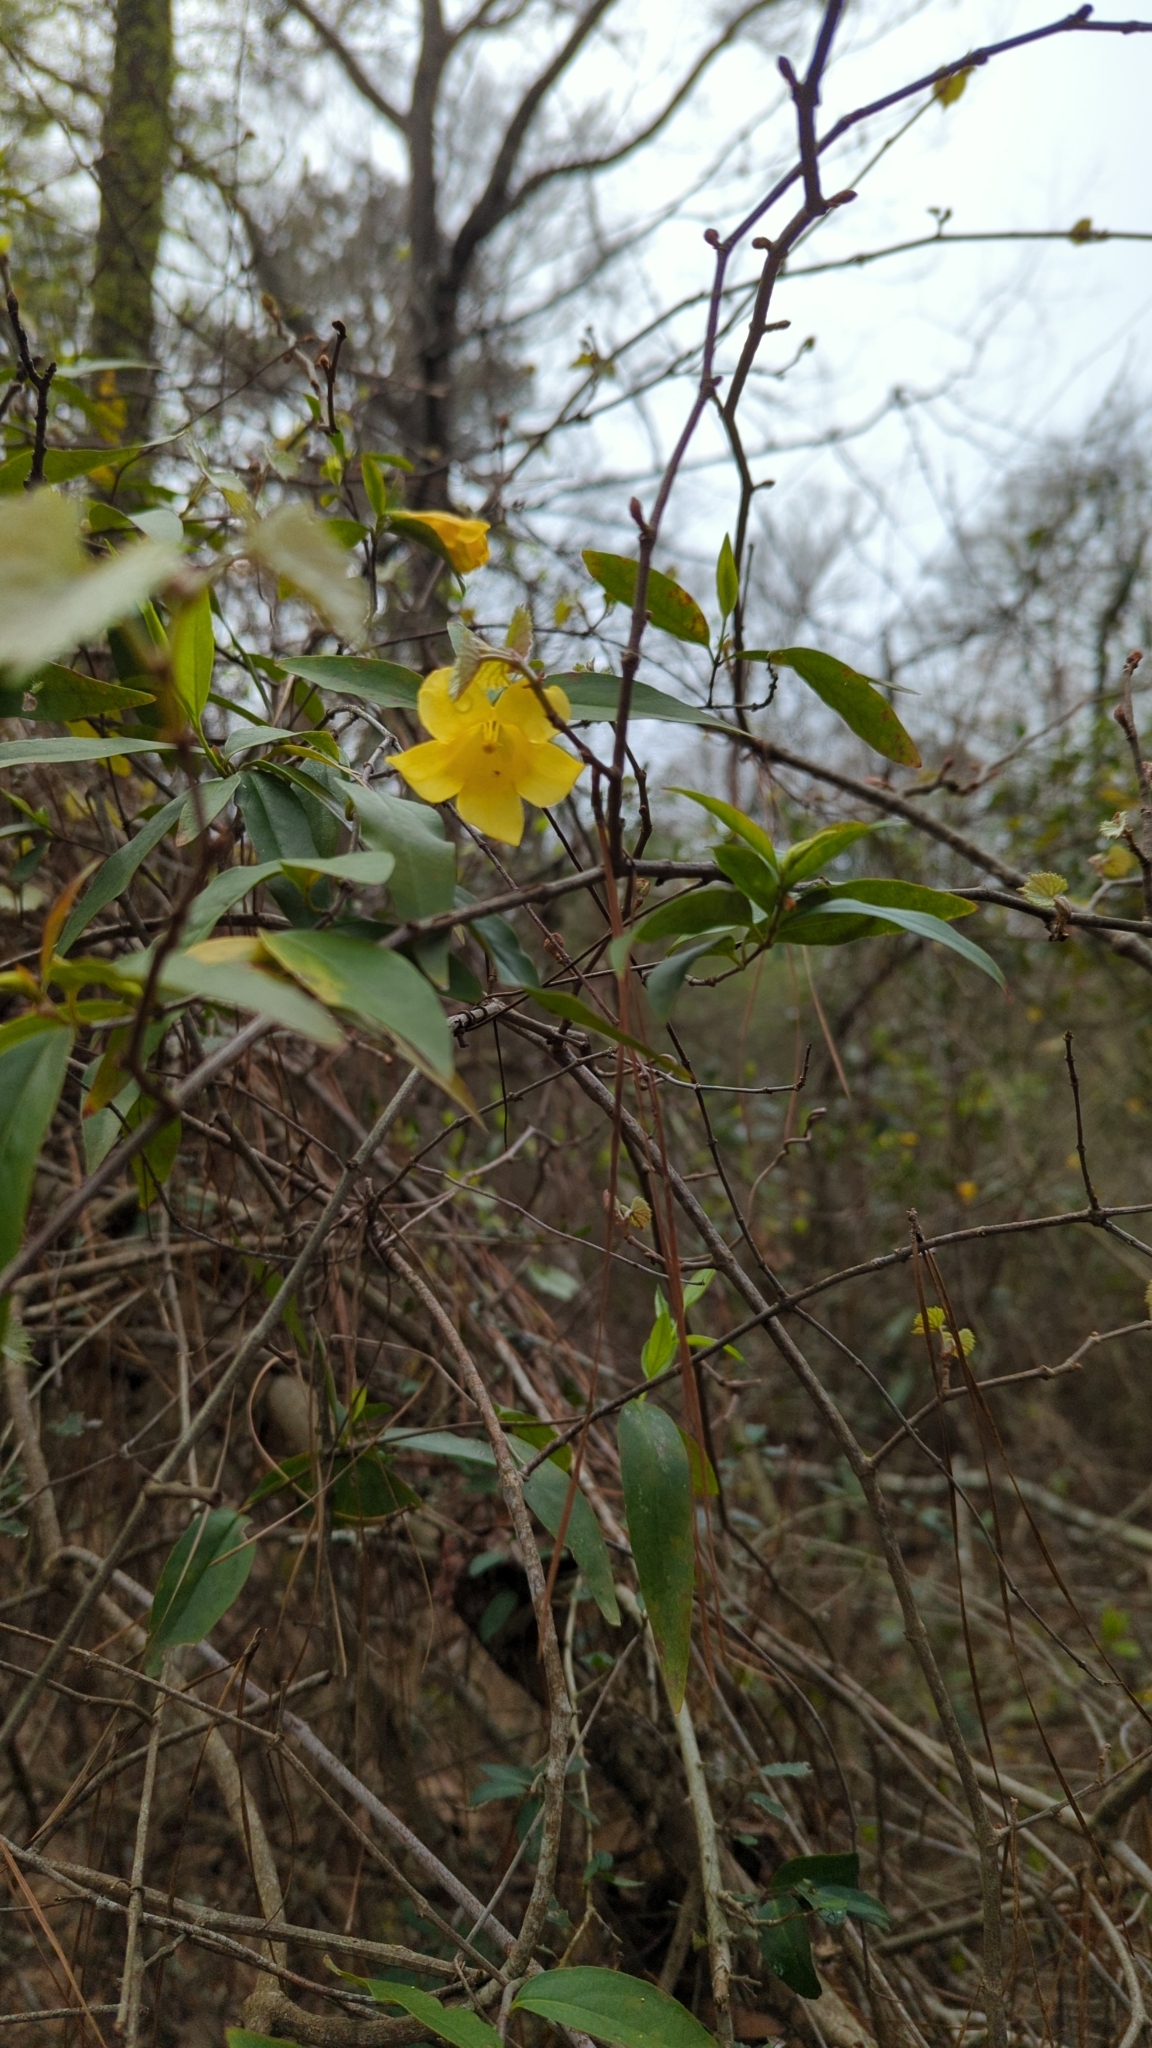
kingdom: Plantae
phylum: Tracheophyta
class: Magnoliopsida
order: Gentianales
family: Gelsemiaceae
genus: Gelsemium
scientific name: Gelsemium sempervirens
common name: Carolina-jasmine
